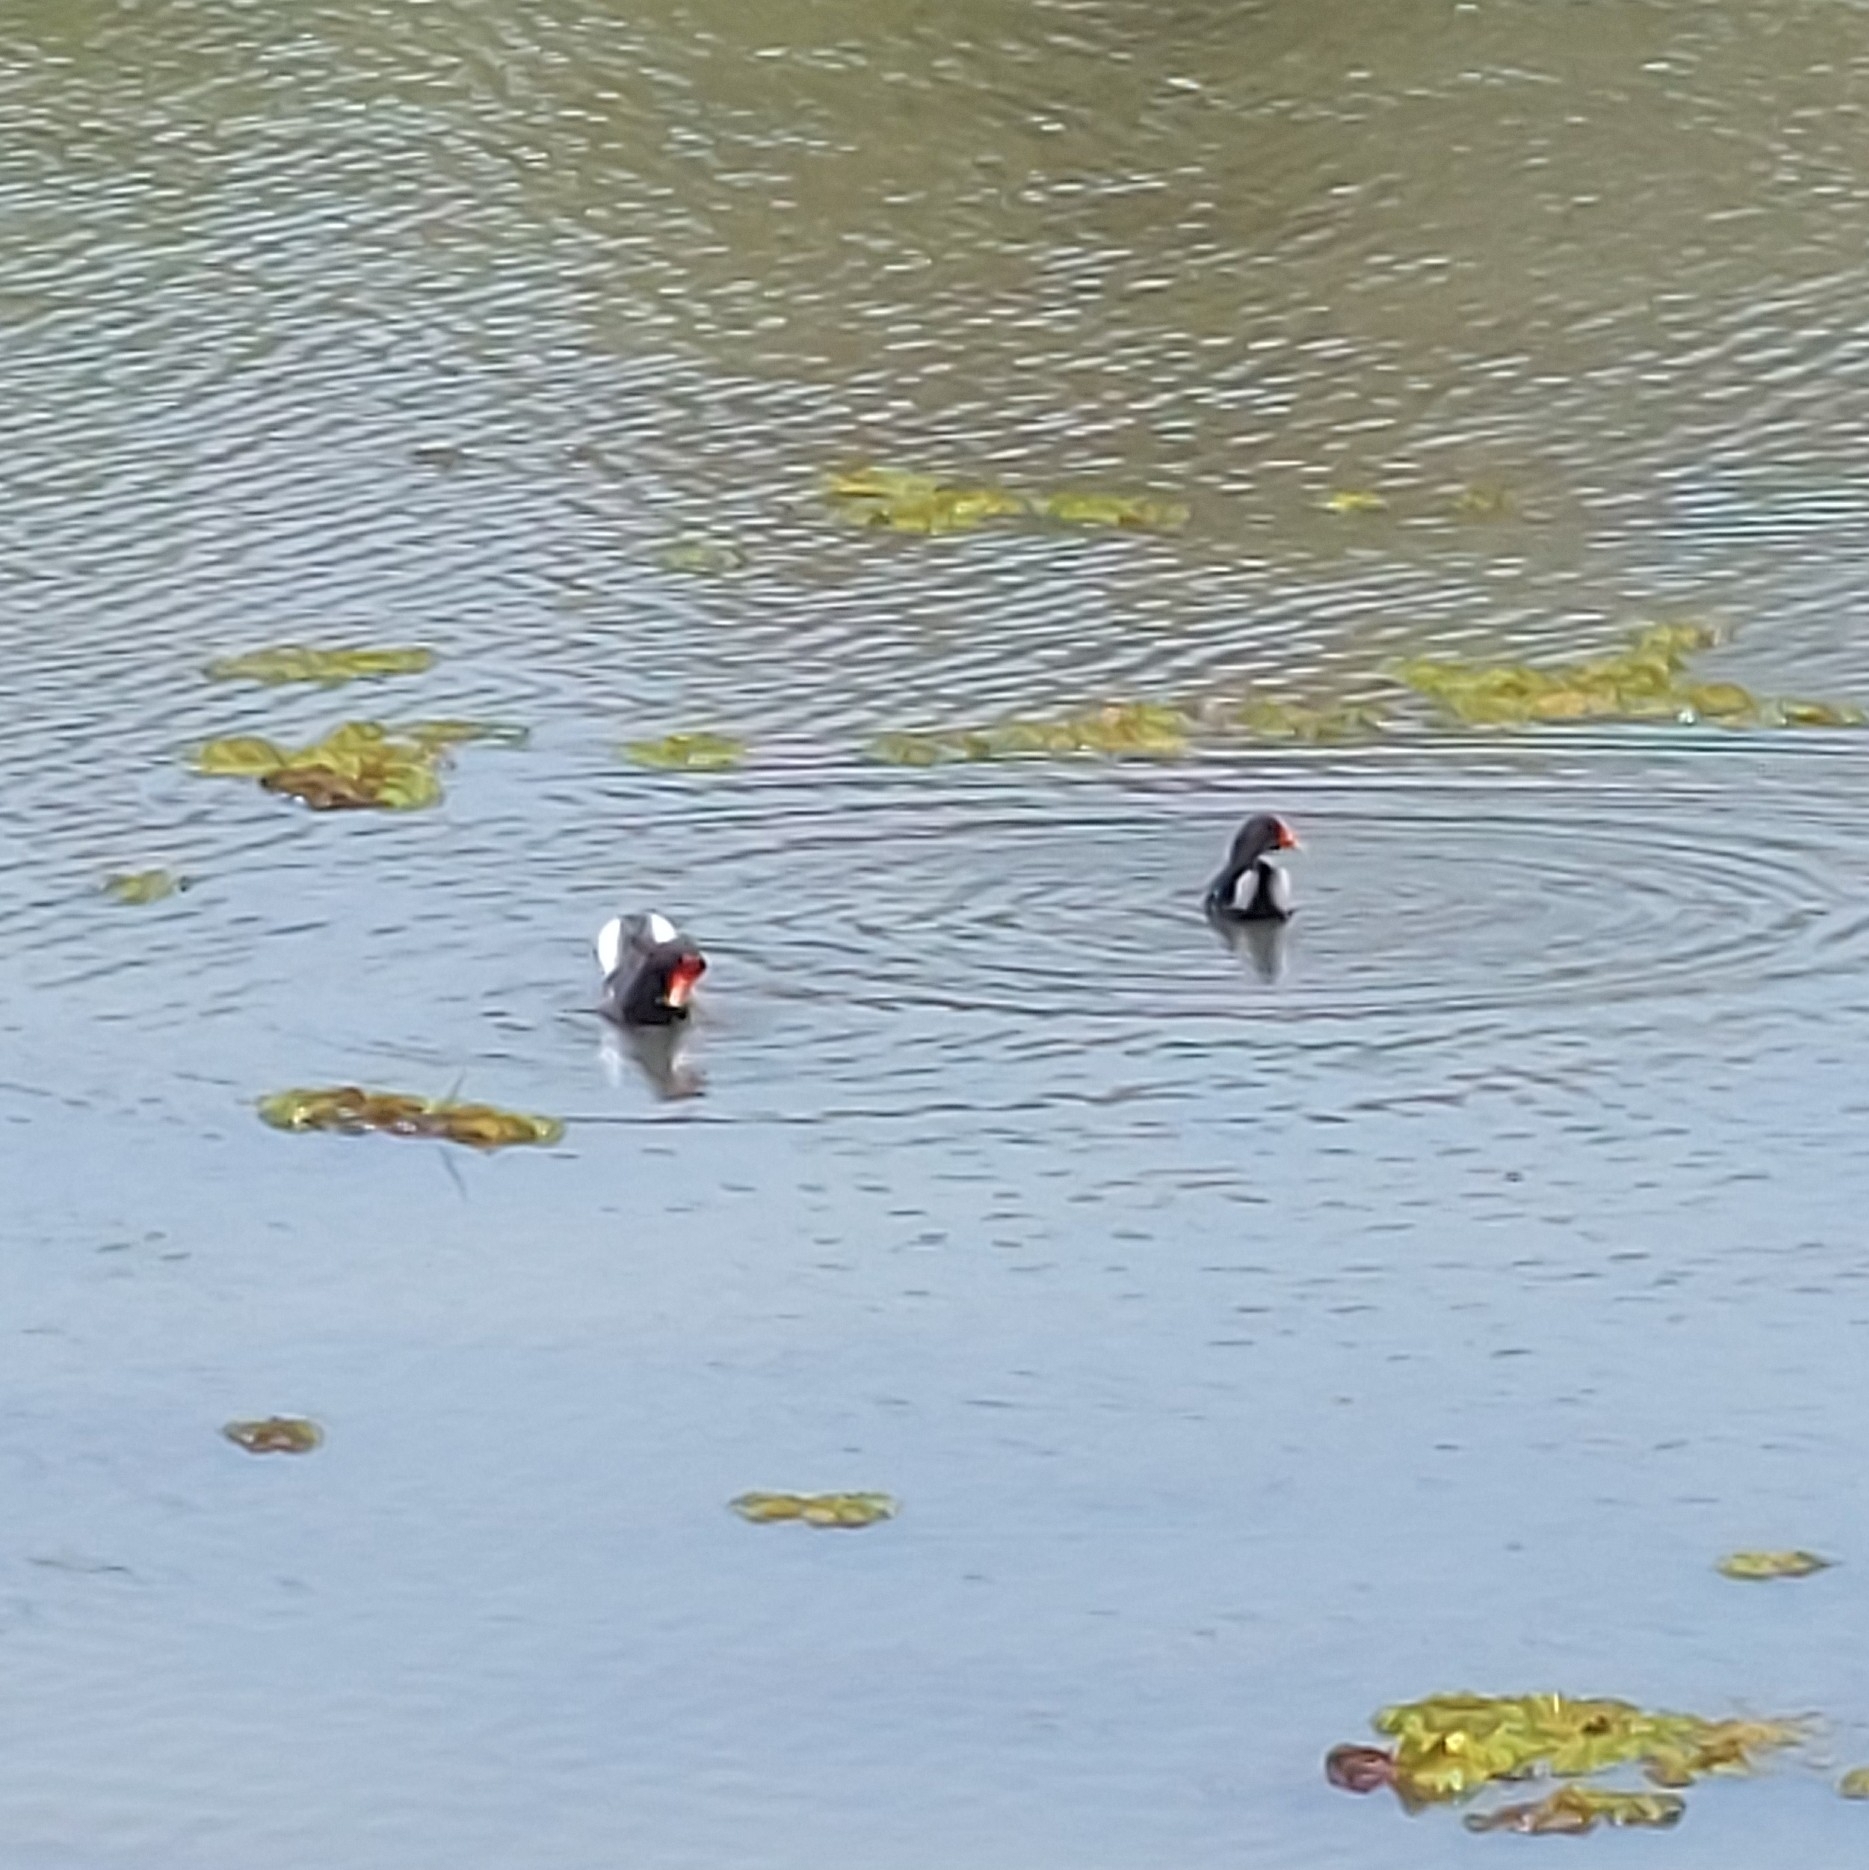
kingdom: Animalia
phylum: Chordata
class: Aves
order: Gruiformes
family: Rallidae
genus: Gallinula
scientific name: Gallinula chloropus
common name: Common moorhen
